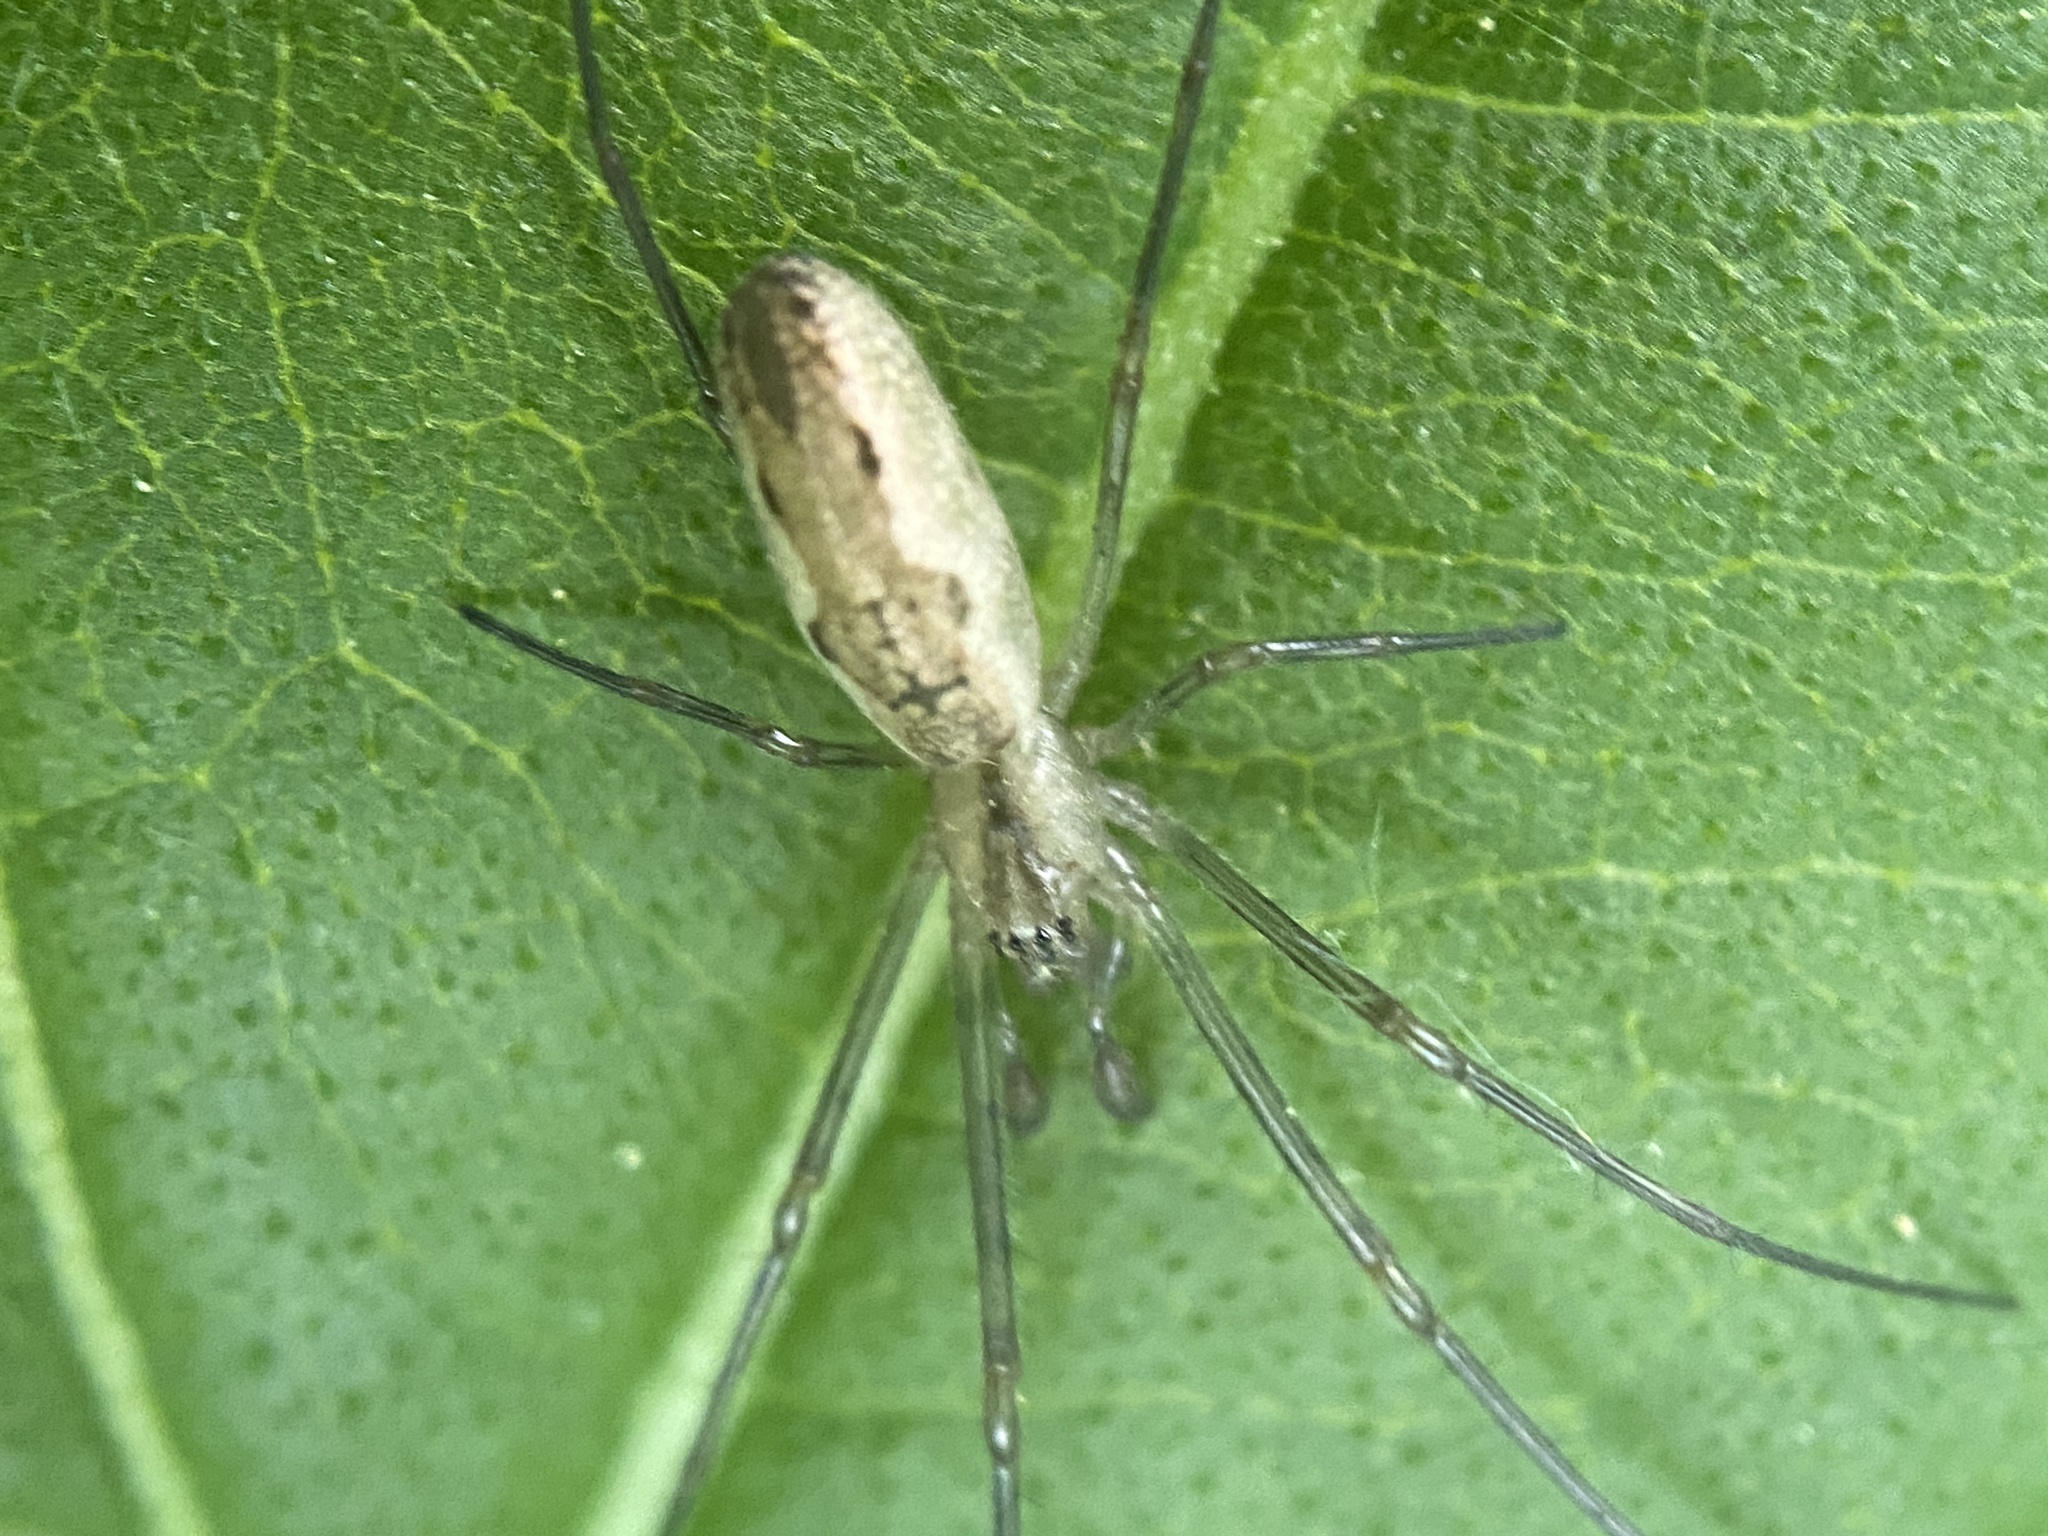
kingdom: Animalia
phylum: Arthropoda
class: Arachnida
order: Araneae
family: Tetragnathidae
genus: Tetragnatha
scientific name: Tetragnatha
